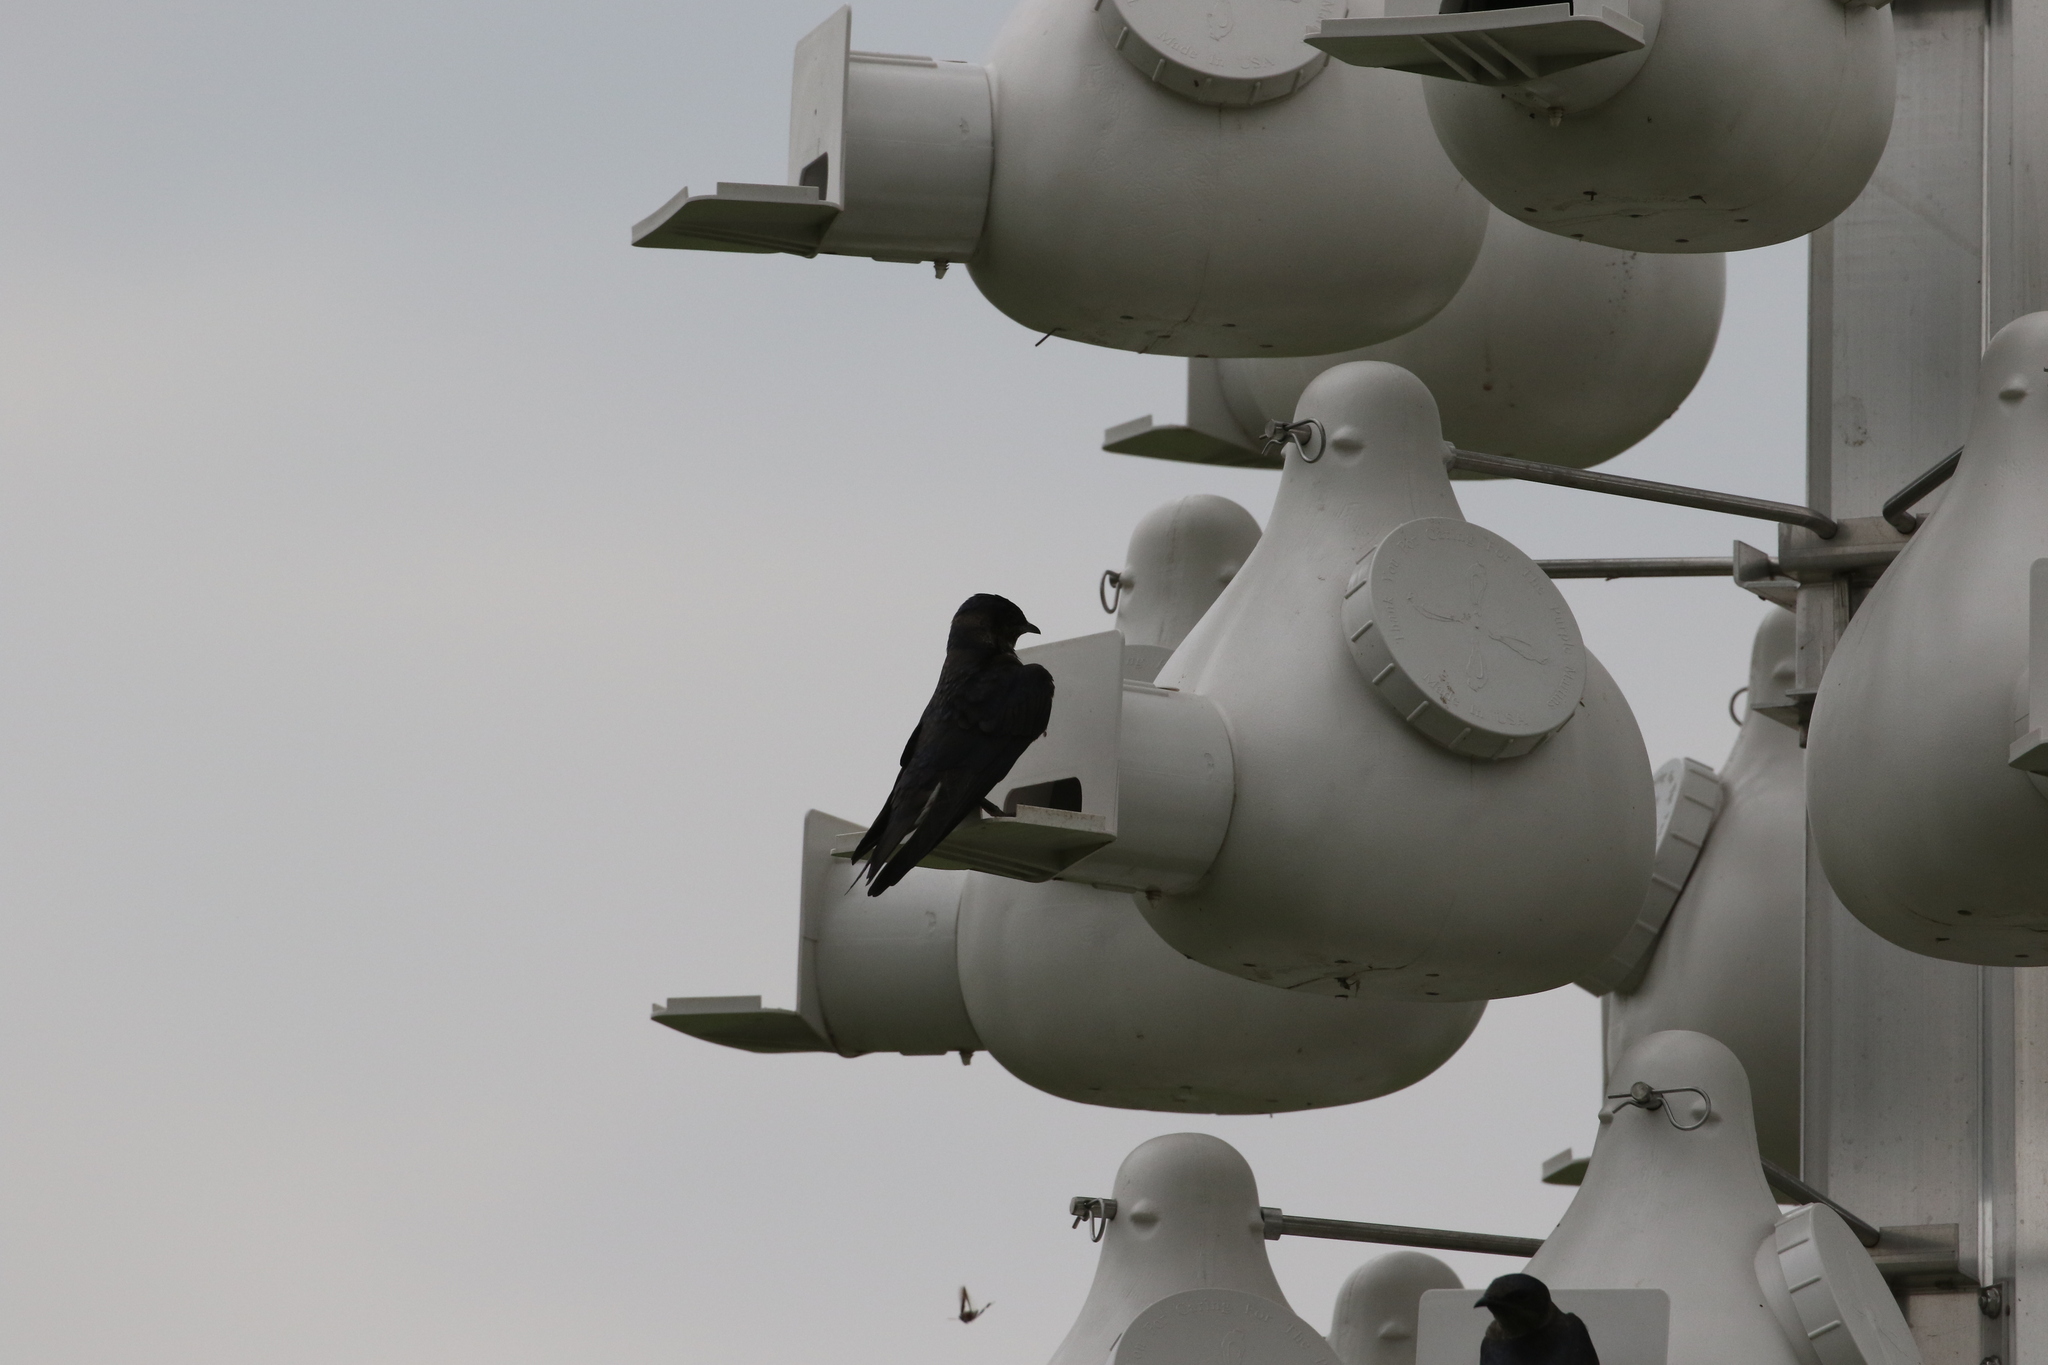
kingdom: Animalia
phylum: Chordata
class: Aves
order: Passeriformes
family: Hirundinidae
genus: Progne
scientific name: Progne subis
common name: Purple martin
